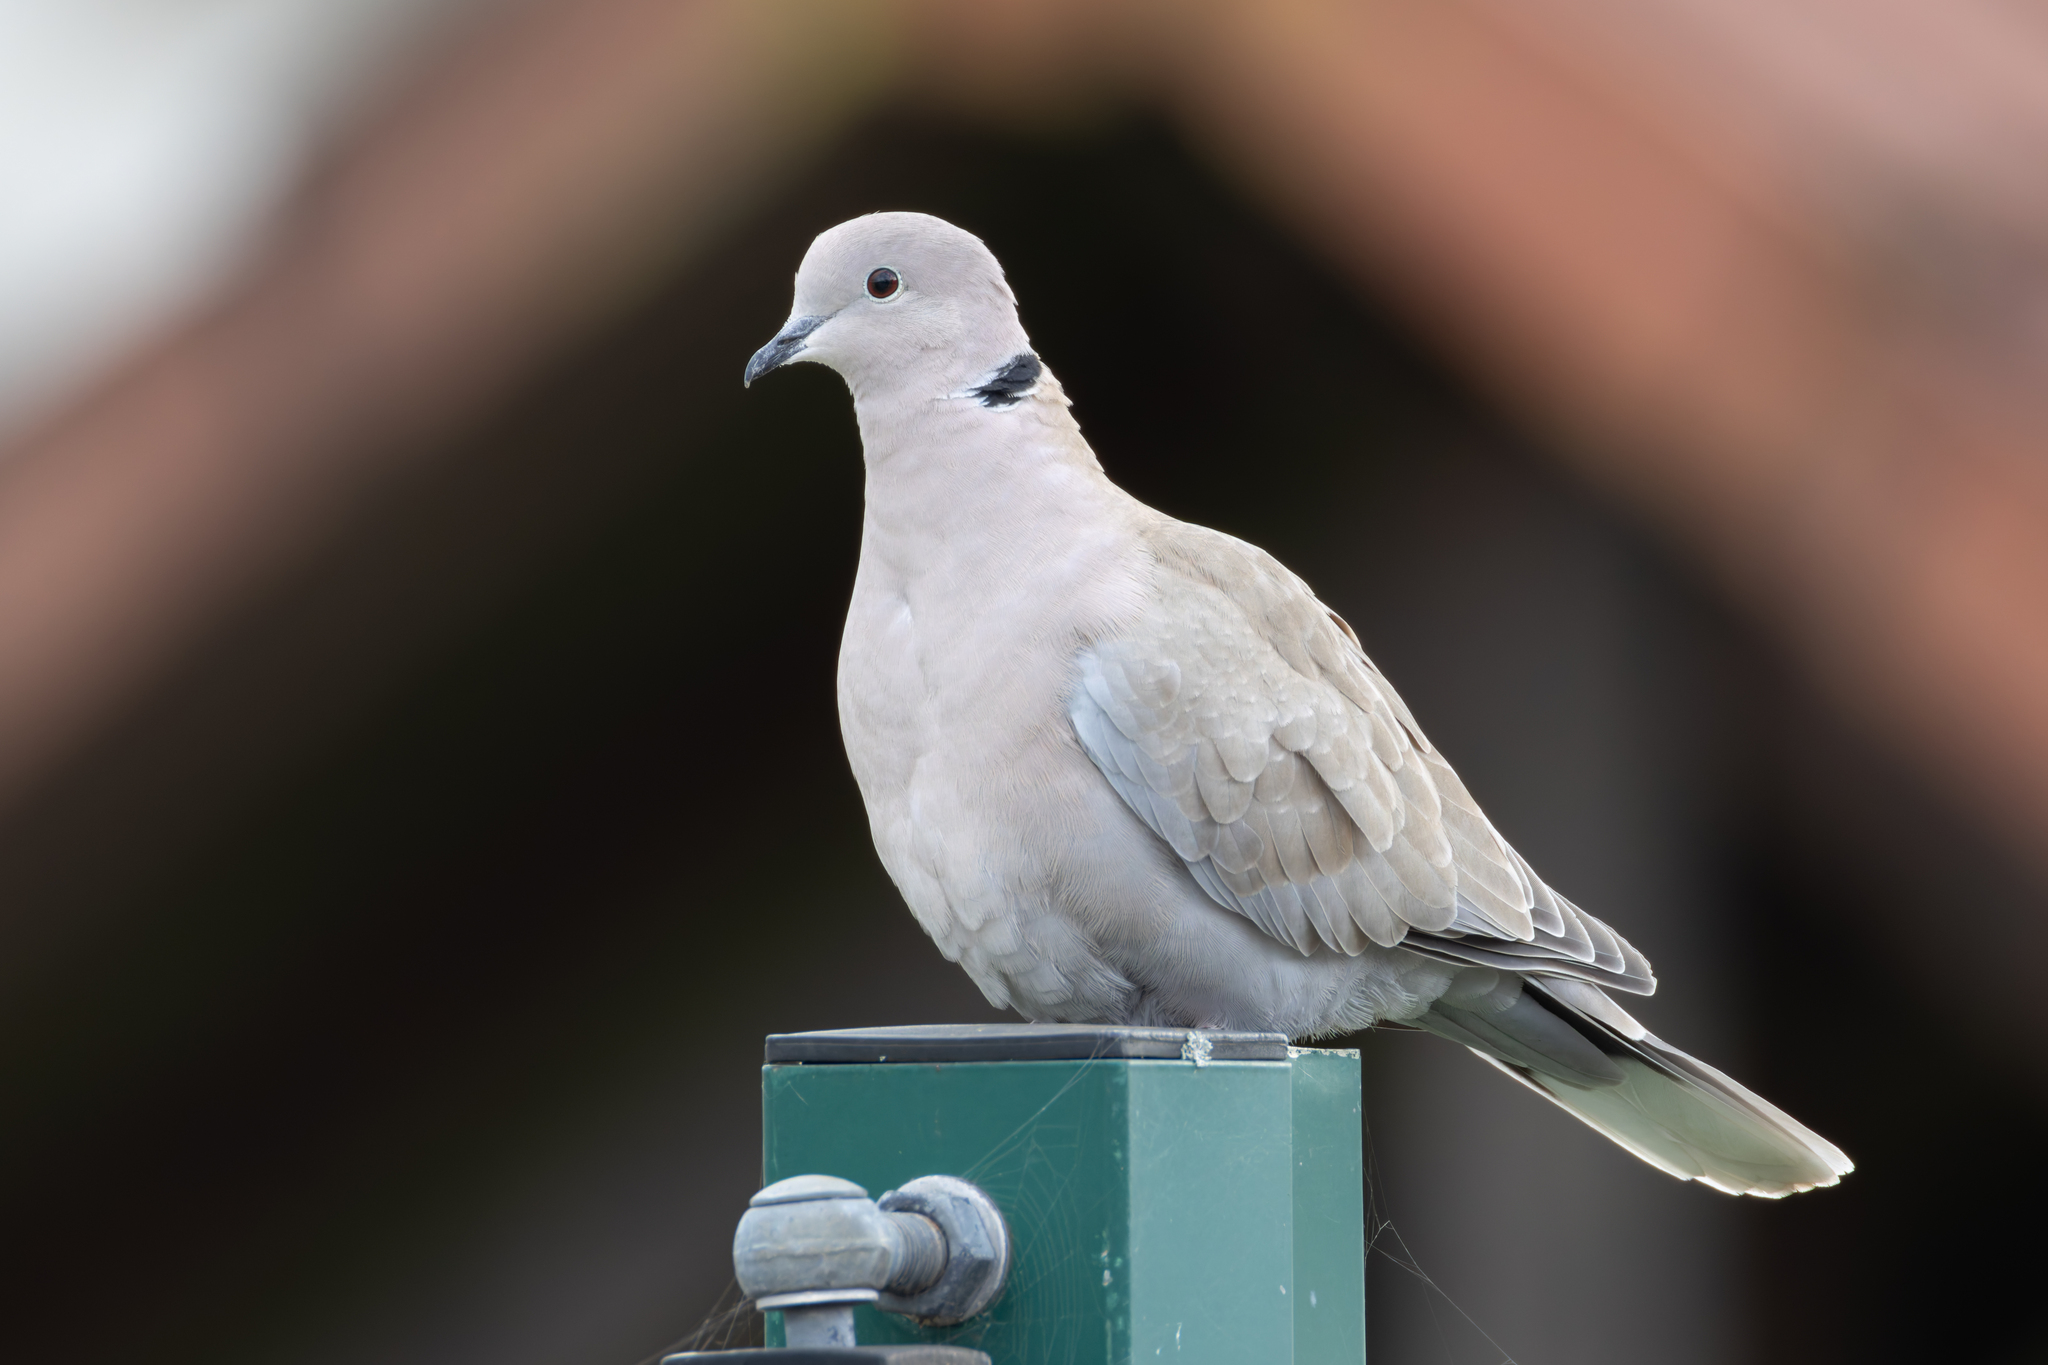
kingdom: Animalia
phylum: Chordata
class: Aves
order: Columbiformes
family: Columbidae
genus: Streptopelia
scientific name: Streptopelia decaocto
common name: Eurasian collared dove
